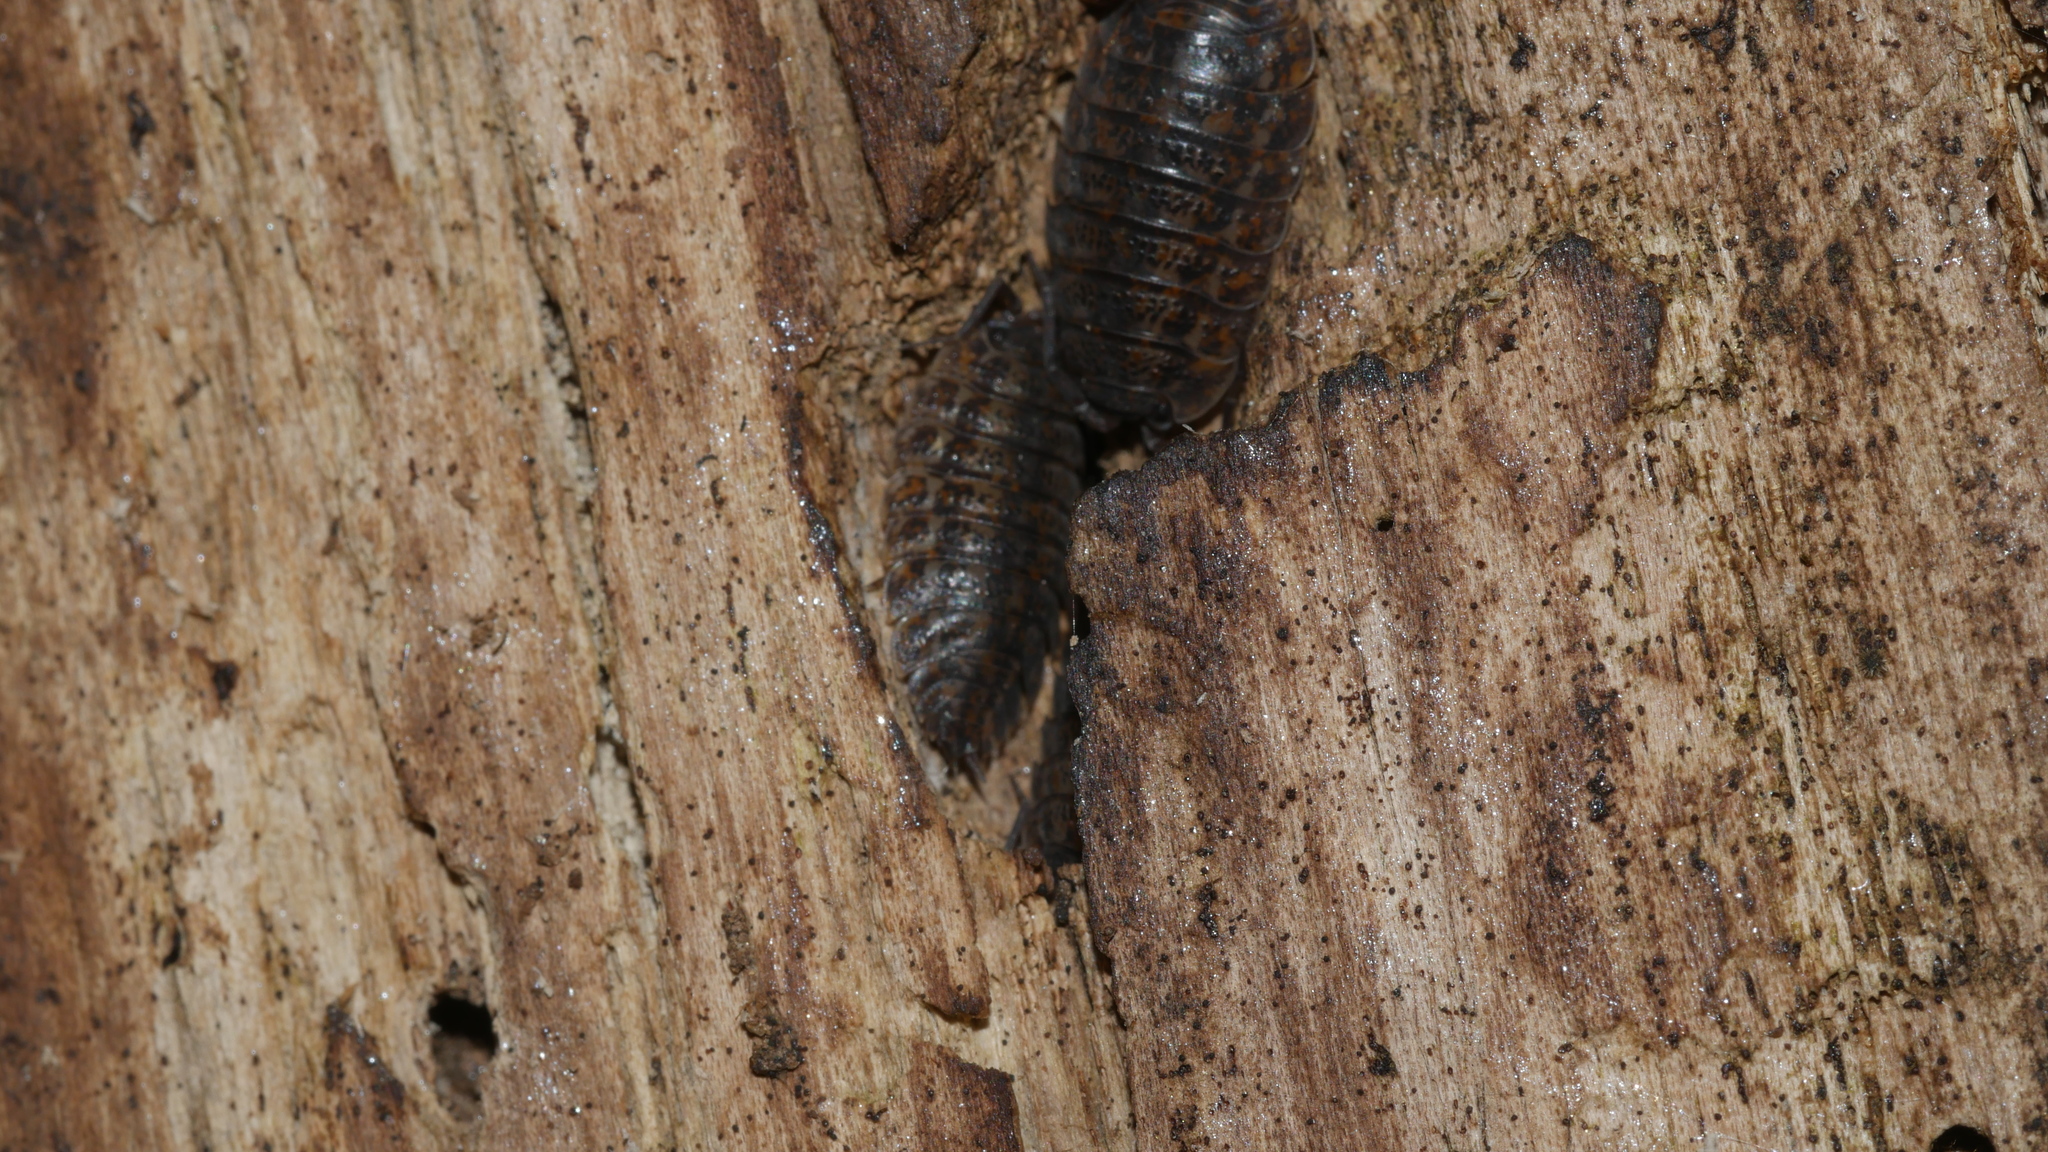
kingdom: Animalia
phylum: Arthropoda
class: Malacostraca
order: Isopoda
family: Trachelipodidae
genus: Trachelipus
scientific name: Trachelipus rathkii
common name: Isopod
